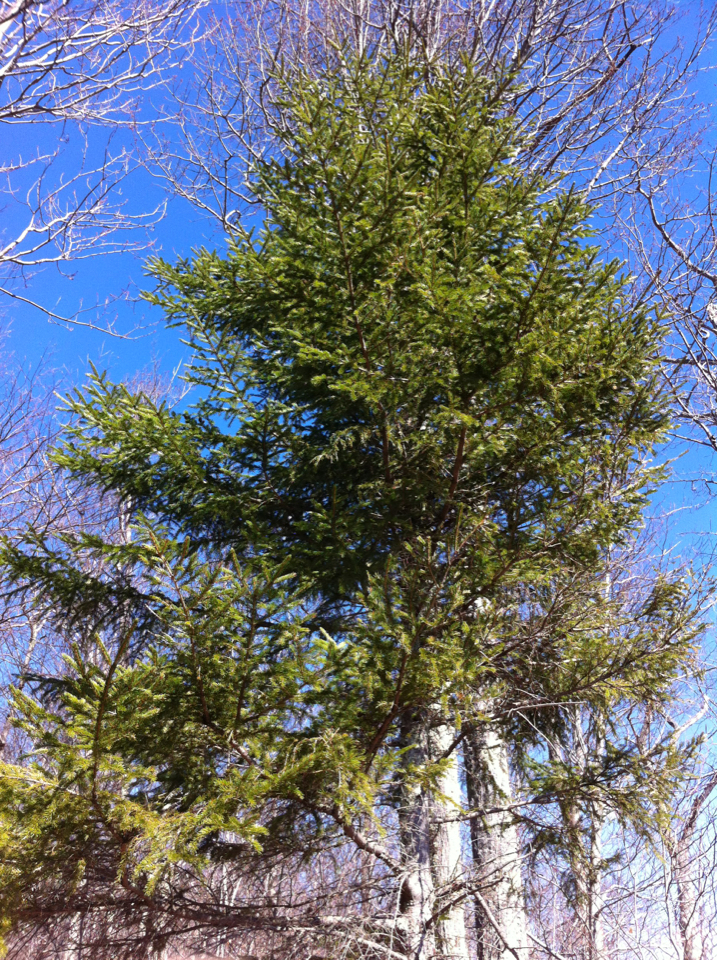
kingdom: Plantae
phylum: Tracheophyta
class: Pinopsida
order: Pinales
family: Pinaceae
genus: Picea
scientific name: Picea rubens
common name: Red spruce
